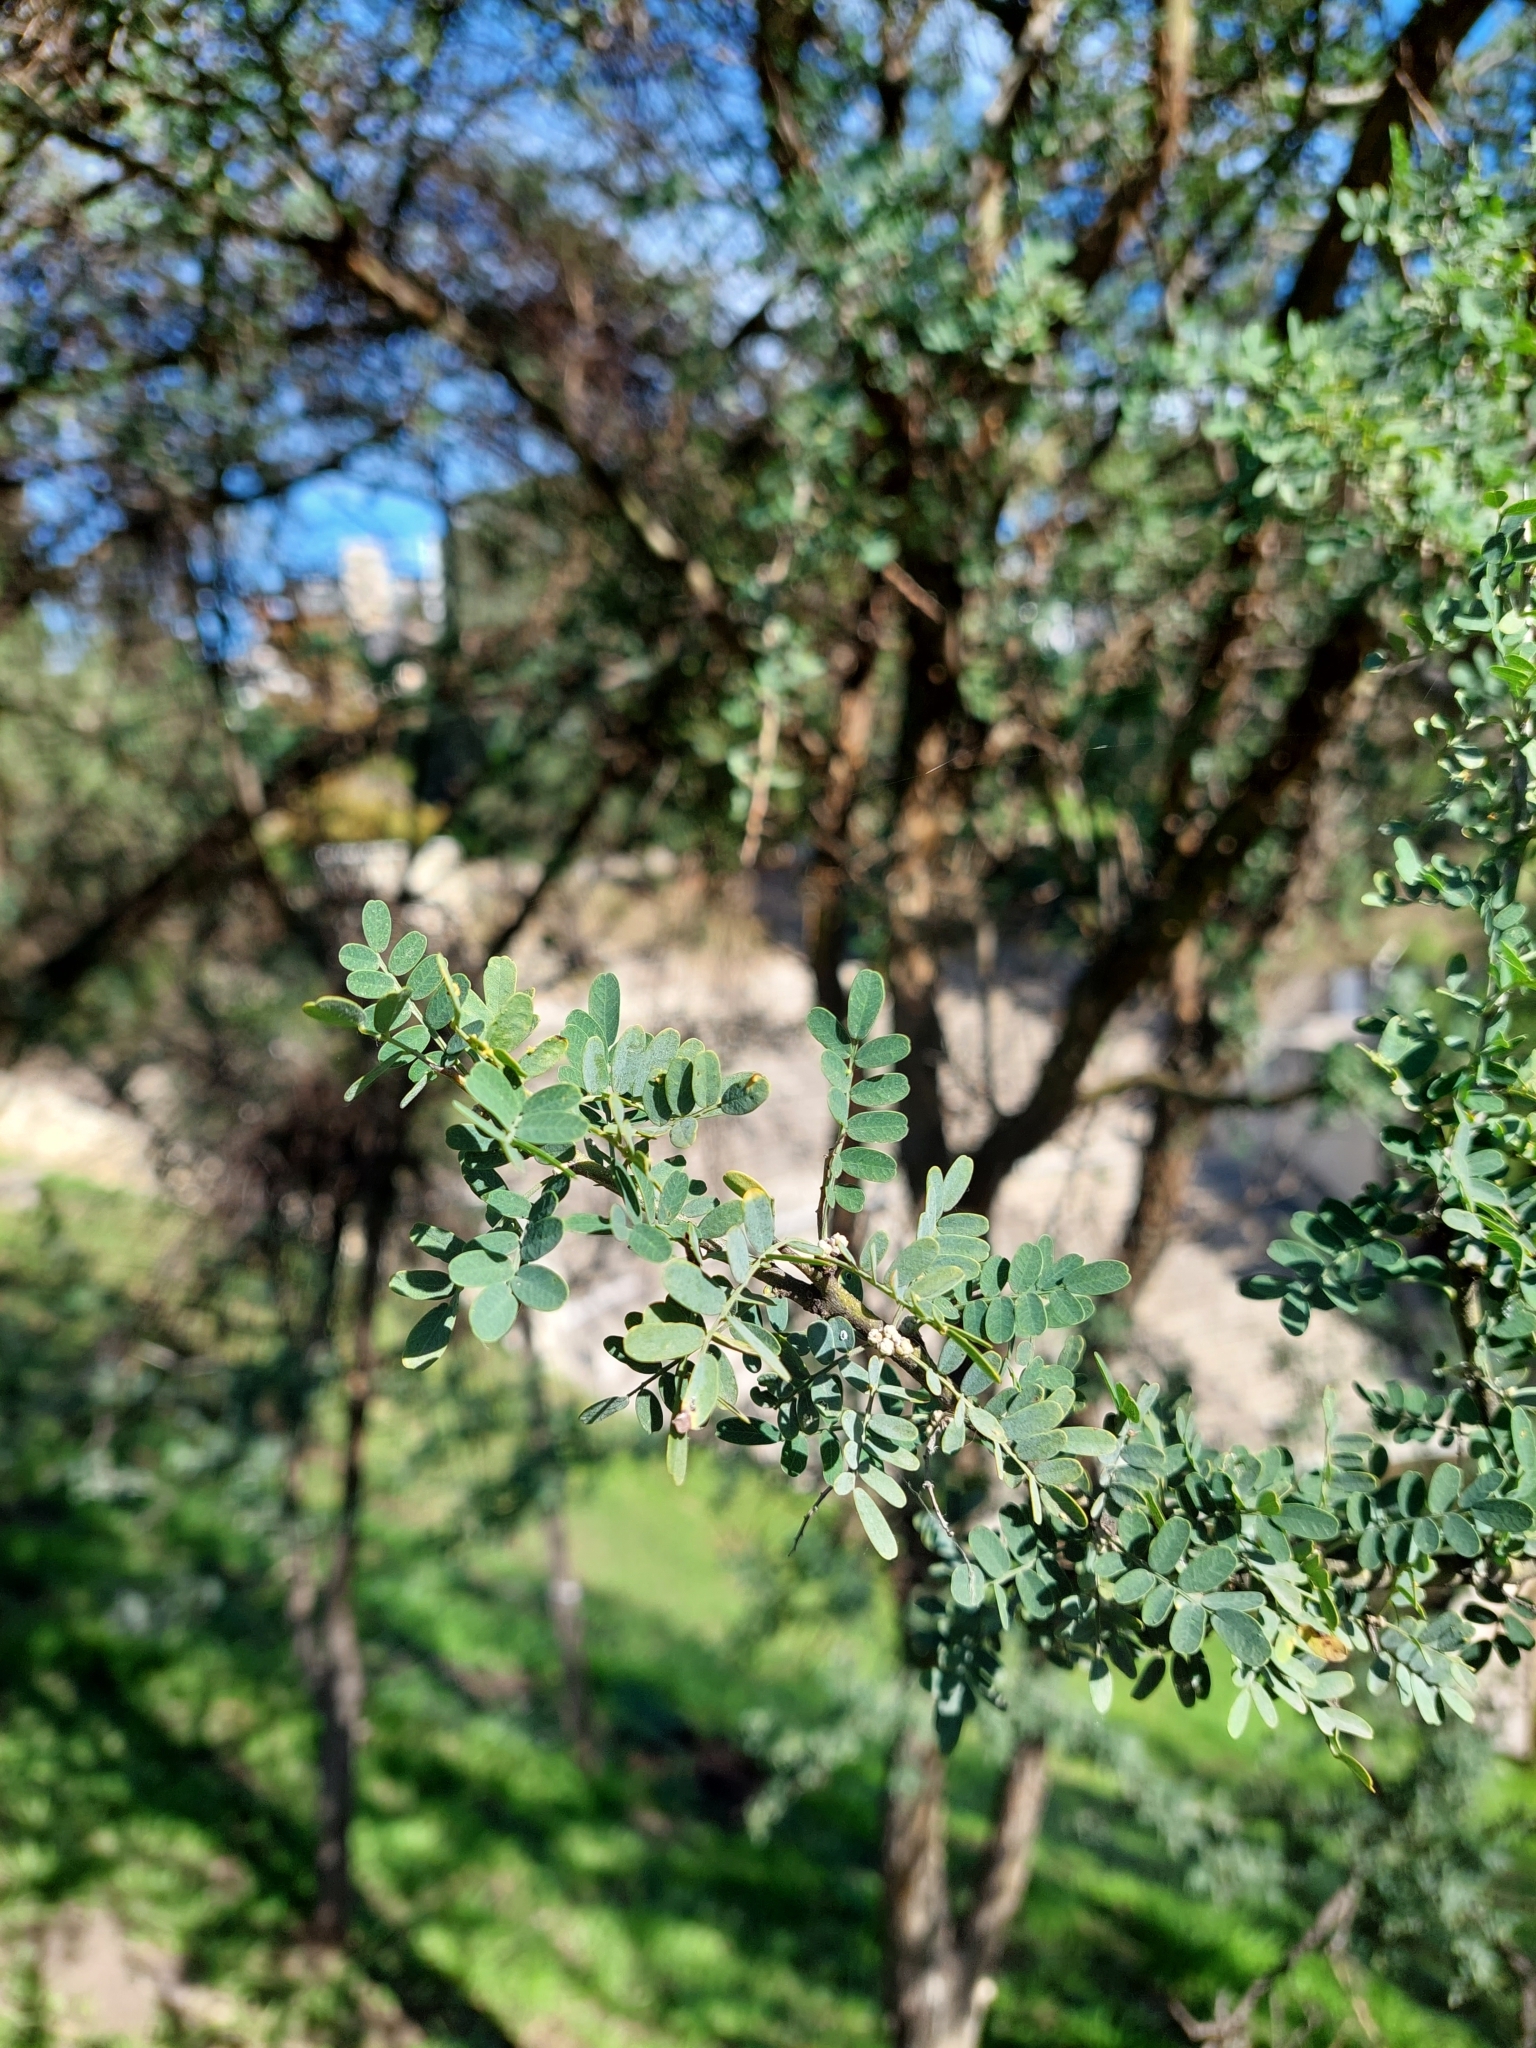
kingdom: Plantae
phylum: Tracheophyta
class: Magnoliopsida
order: Fabales
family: Fabaceae
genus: Geoffroea
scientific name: Geoffroea decorticans
